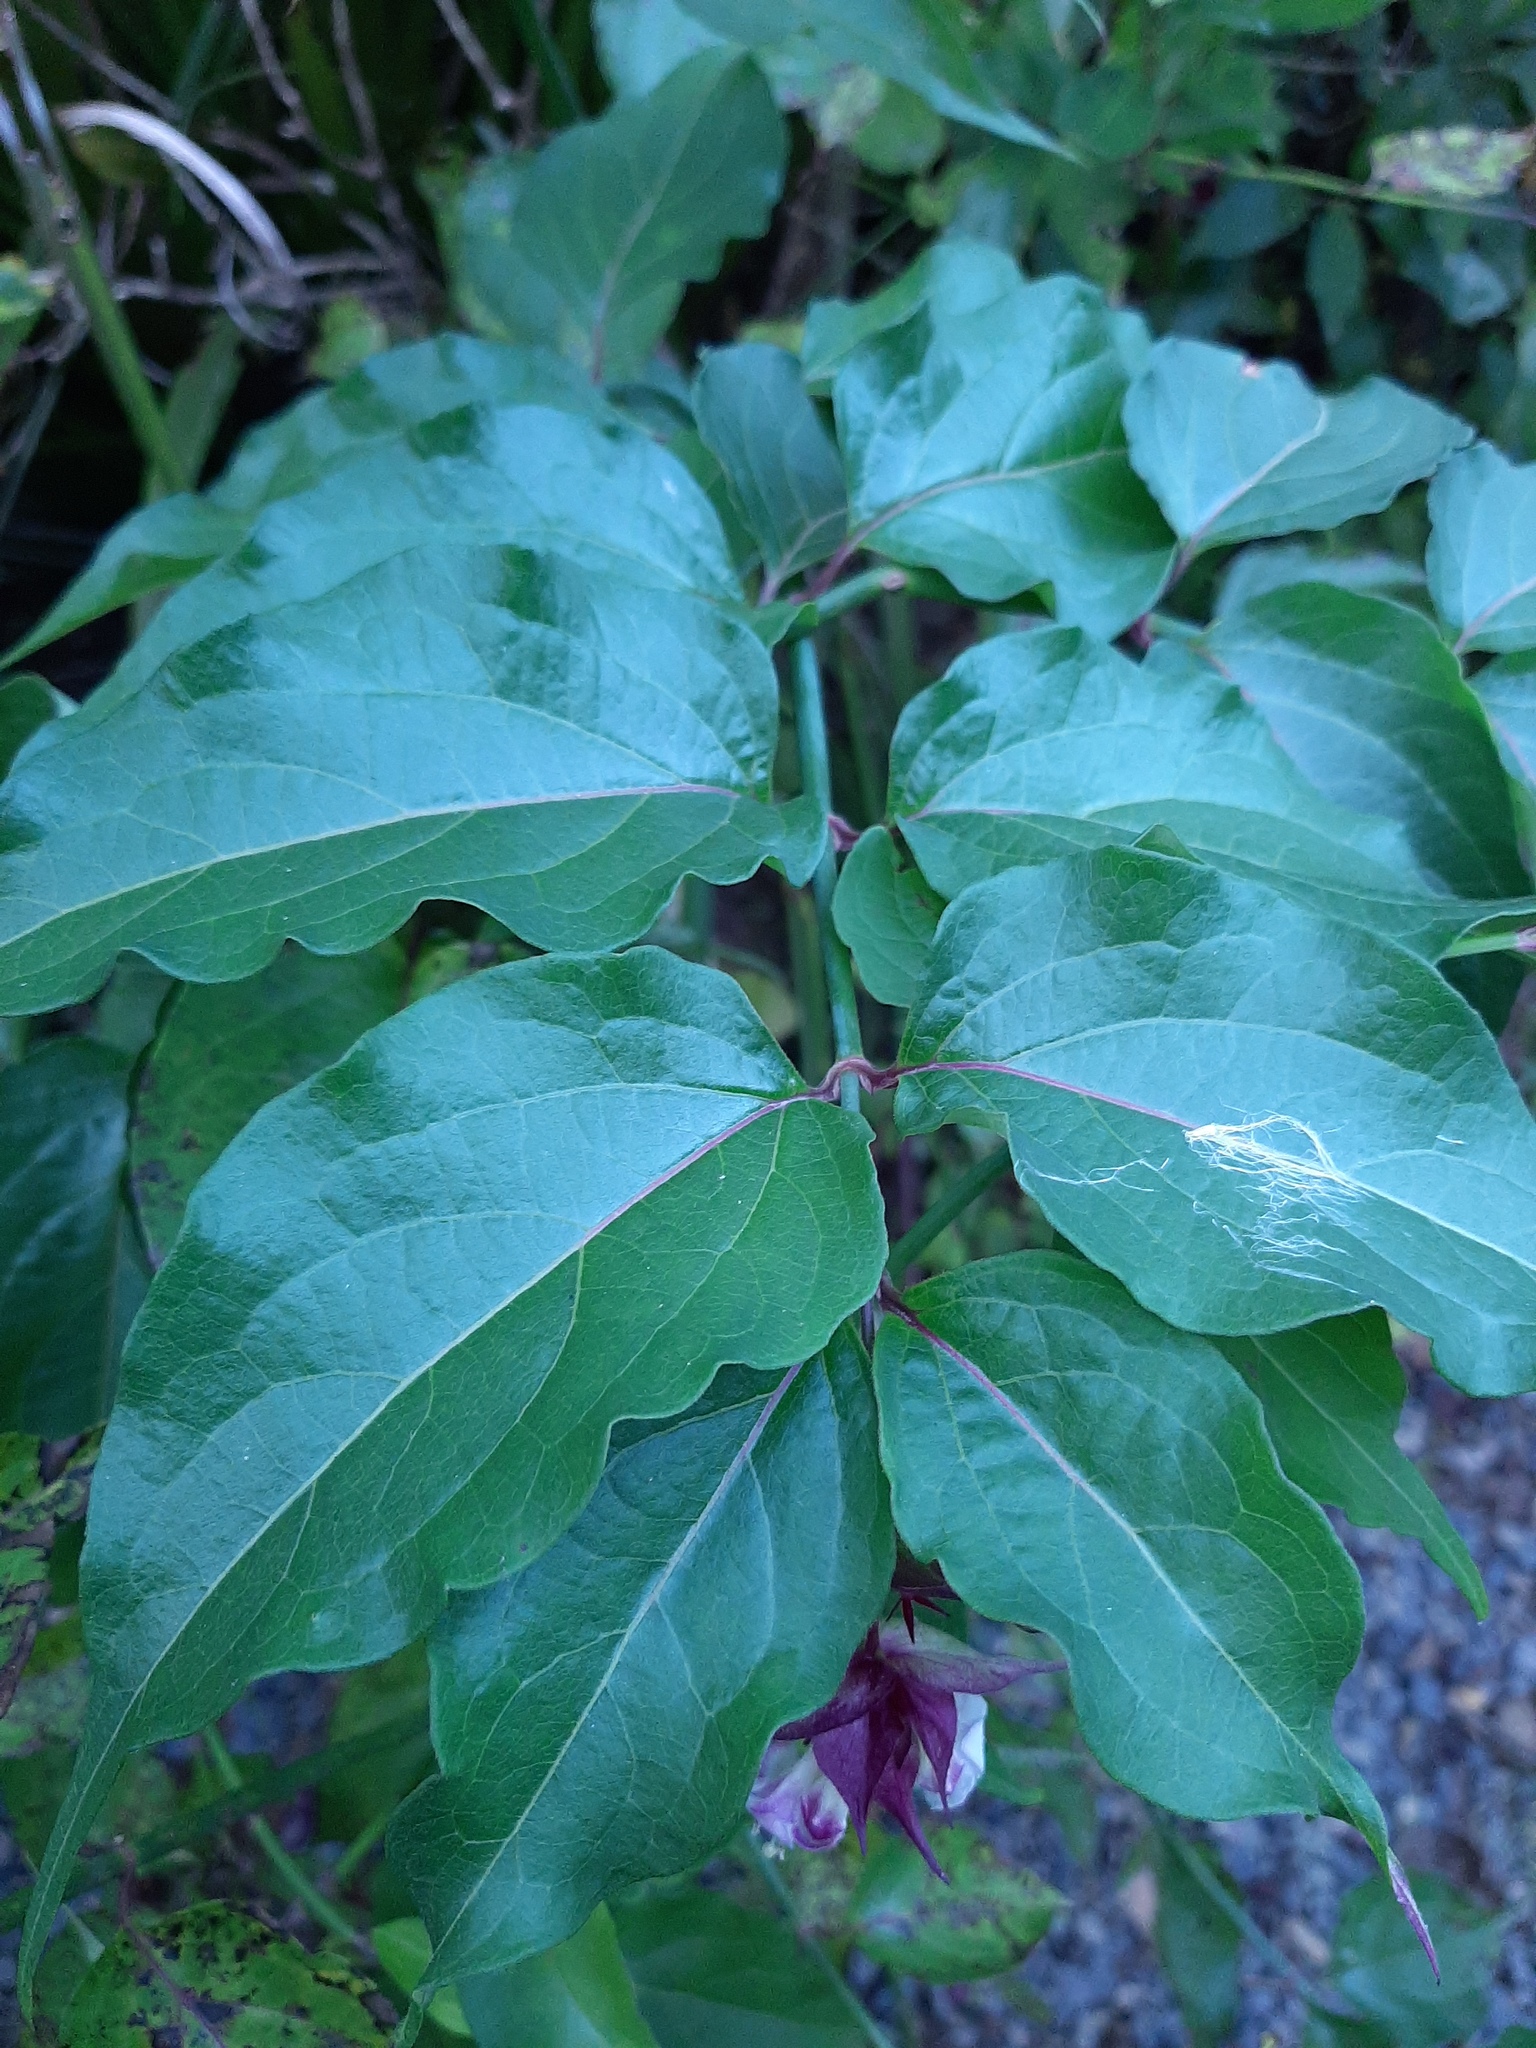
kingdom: Plantae
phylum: Tracheophyta
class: Magnoliopsida
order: Dipsacales
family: Caprifoliaceae
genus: Leycesteria
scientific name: Leycesteria formosa
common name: Himalayan honeysuckle
